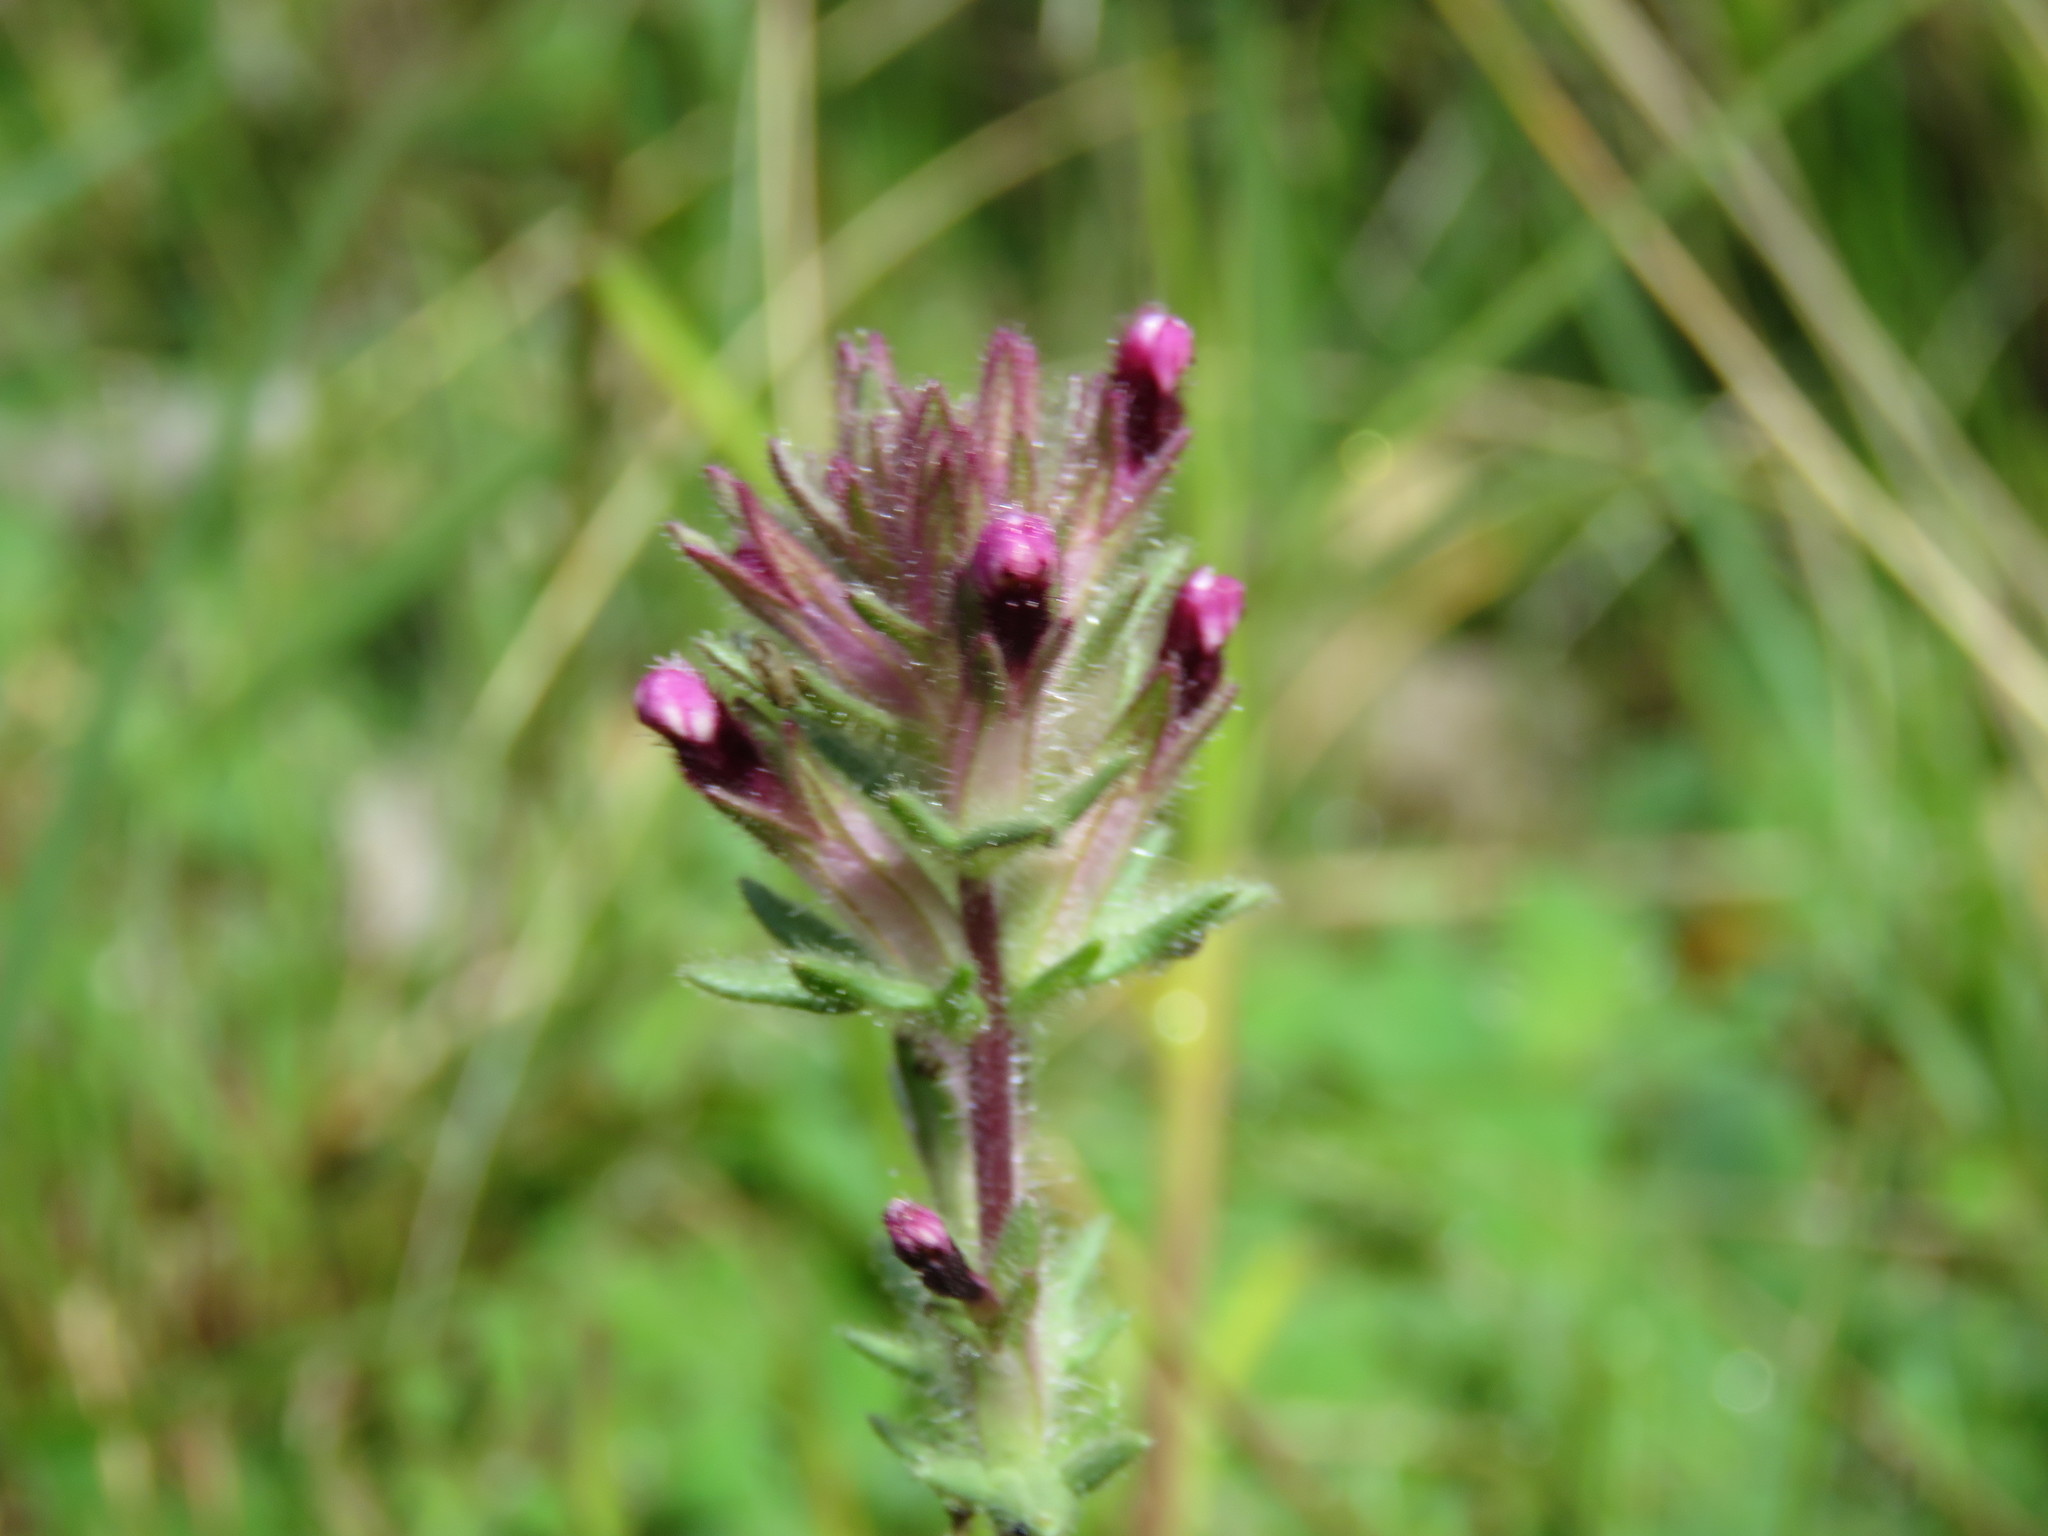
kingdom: Plantae
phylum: Tracheophyta
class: Magnoliopsida
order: Lamiales
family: Orobanchaceae
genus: Parentucellia
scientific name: Parentucellia latifolia
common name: Broadleaf glandweed
